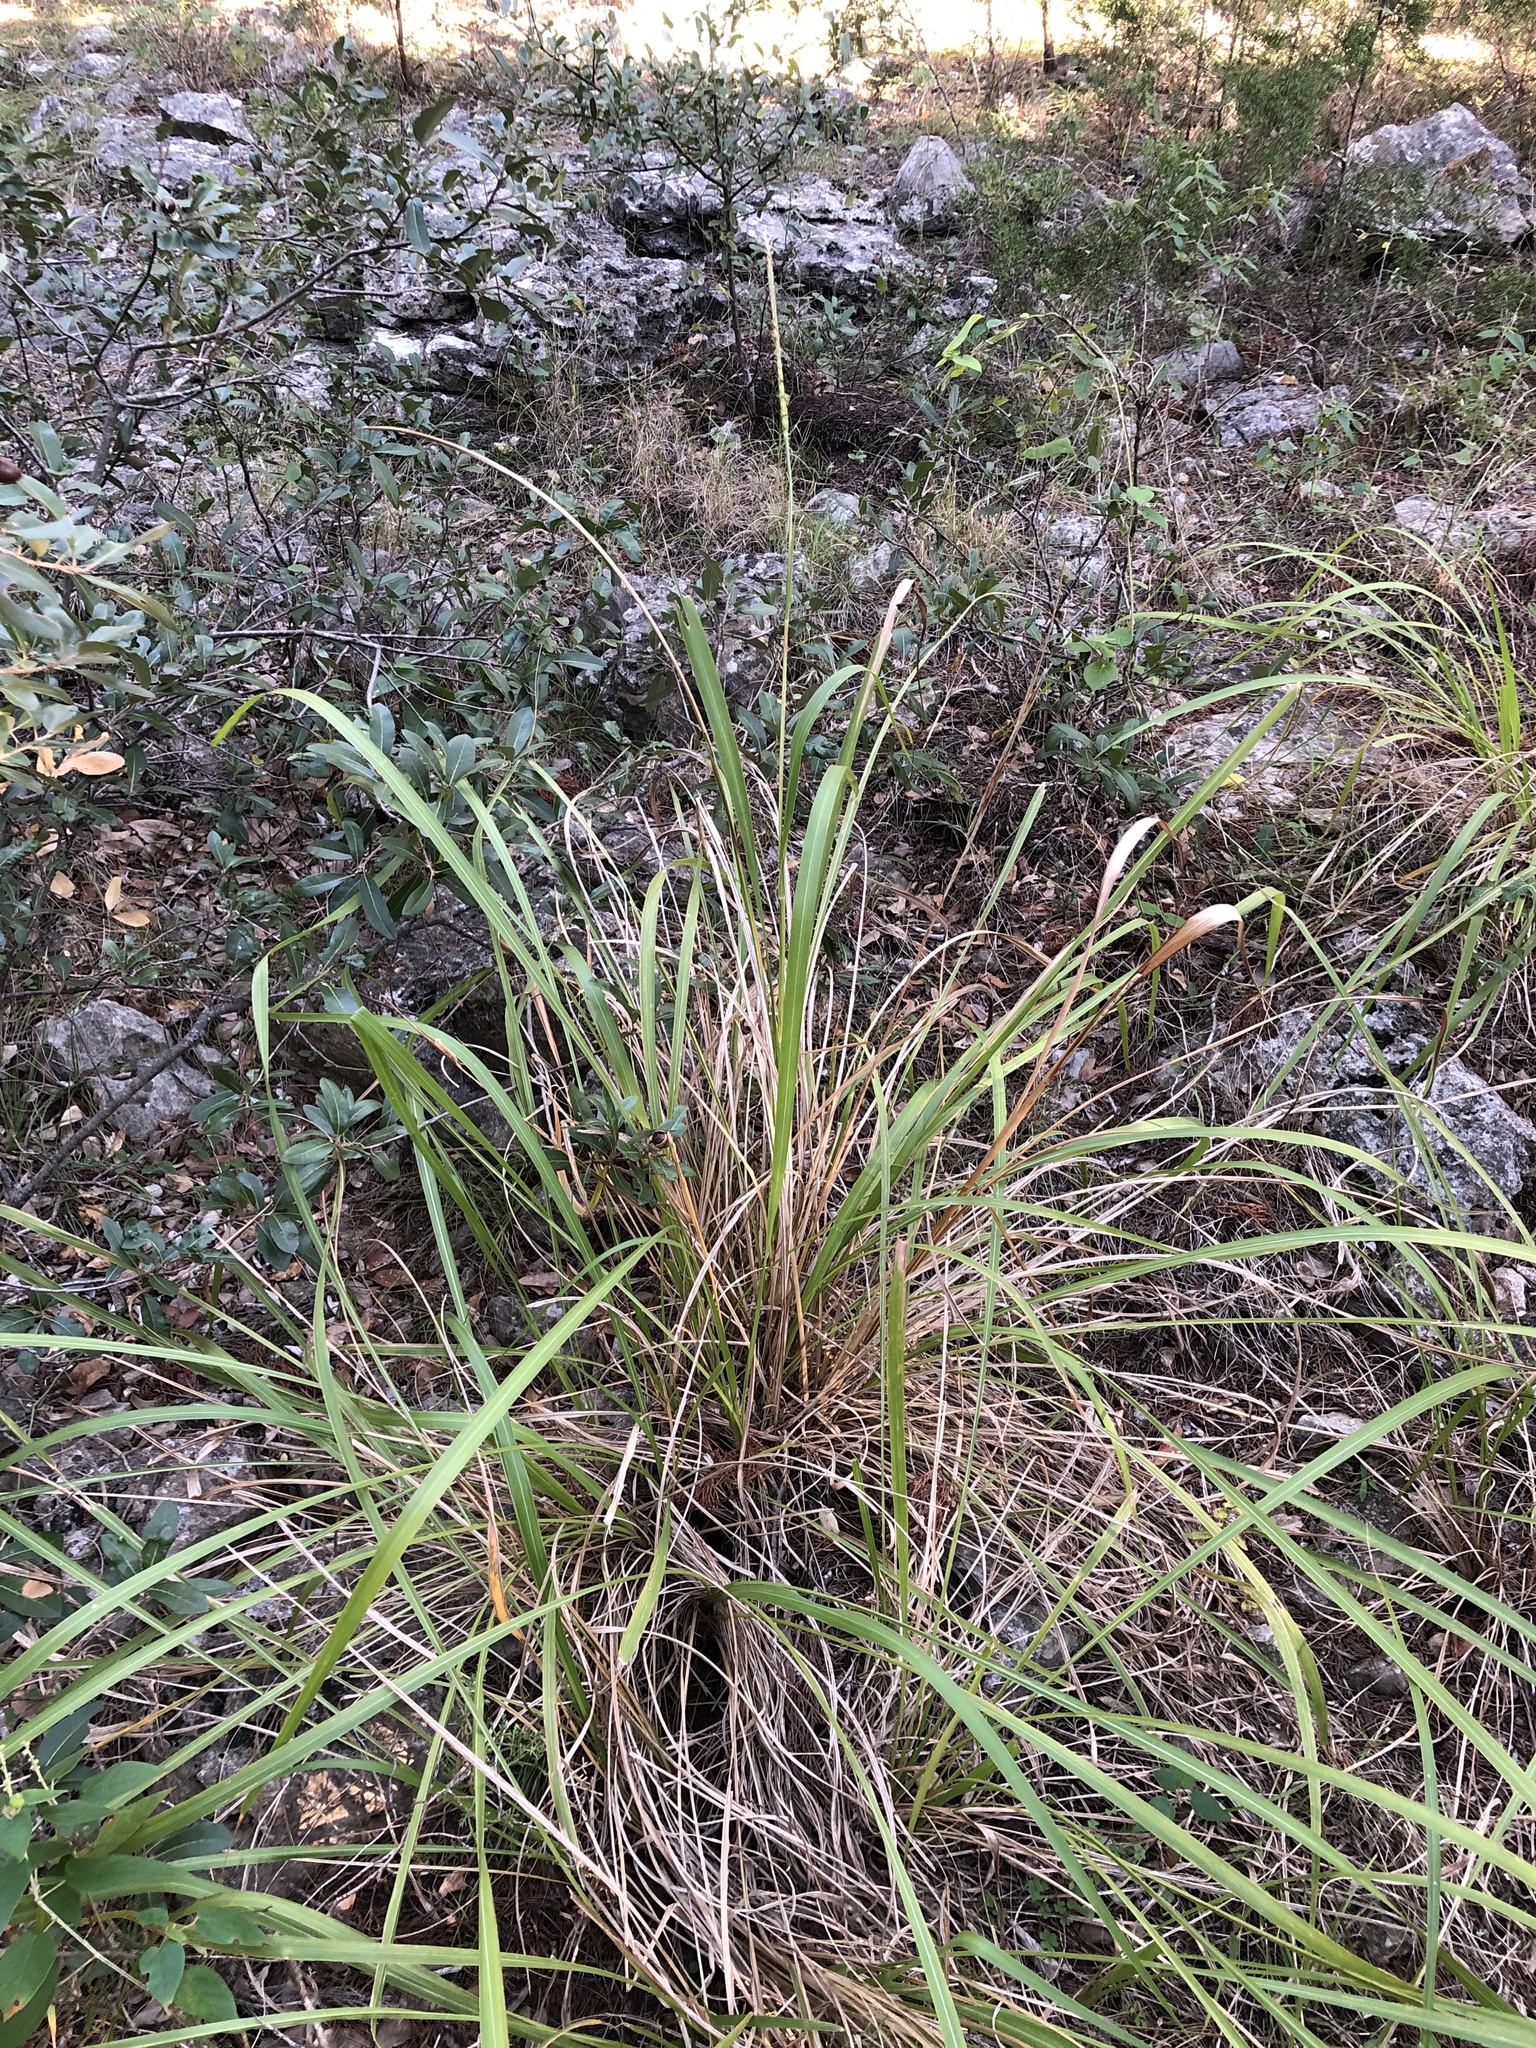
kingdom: Plantae
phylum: Tracheophyta
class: Liliopsida
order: Poales
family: Poaceae
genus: Tripsacum
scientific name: Tripsacum dactyloides
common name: Buffalo-grass
